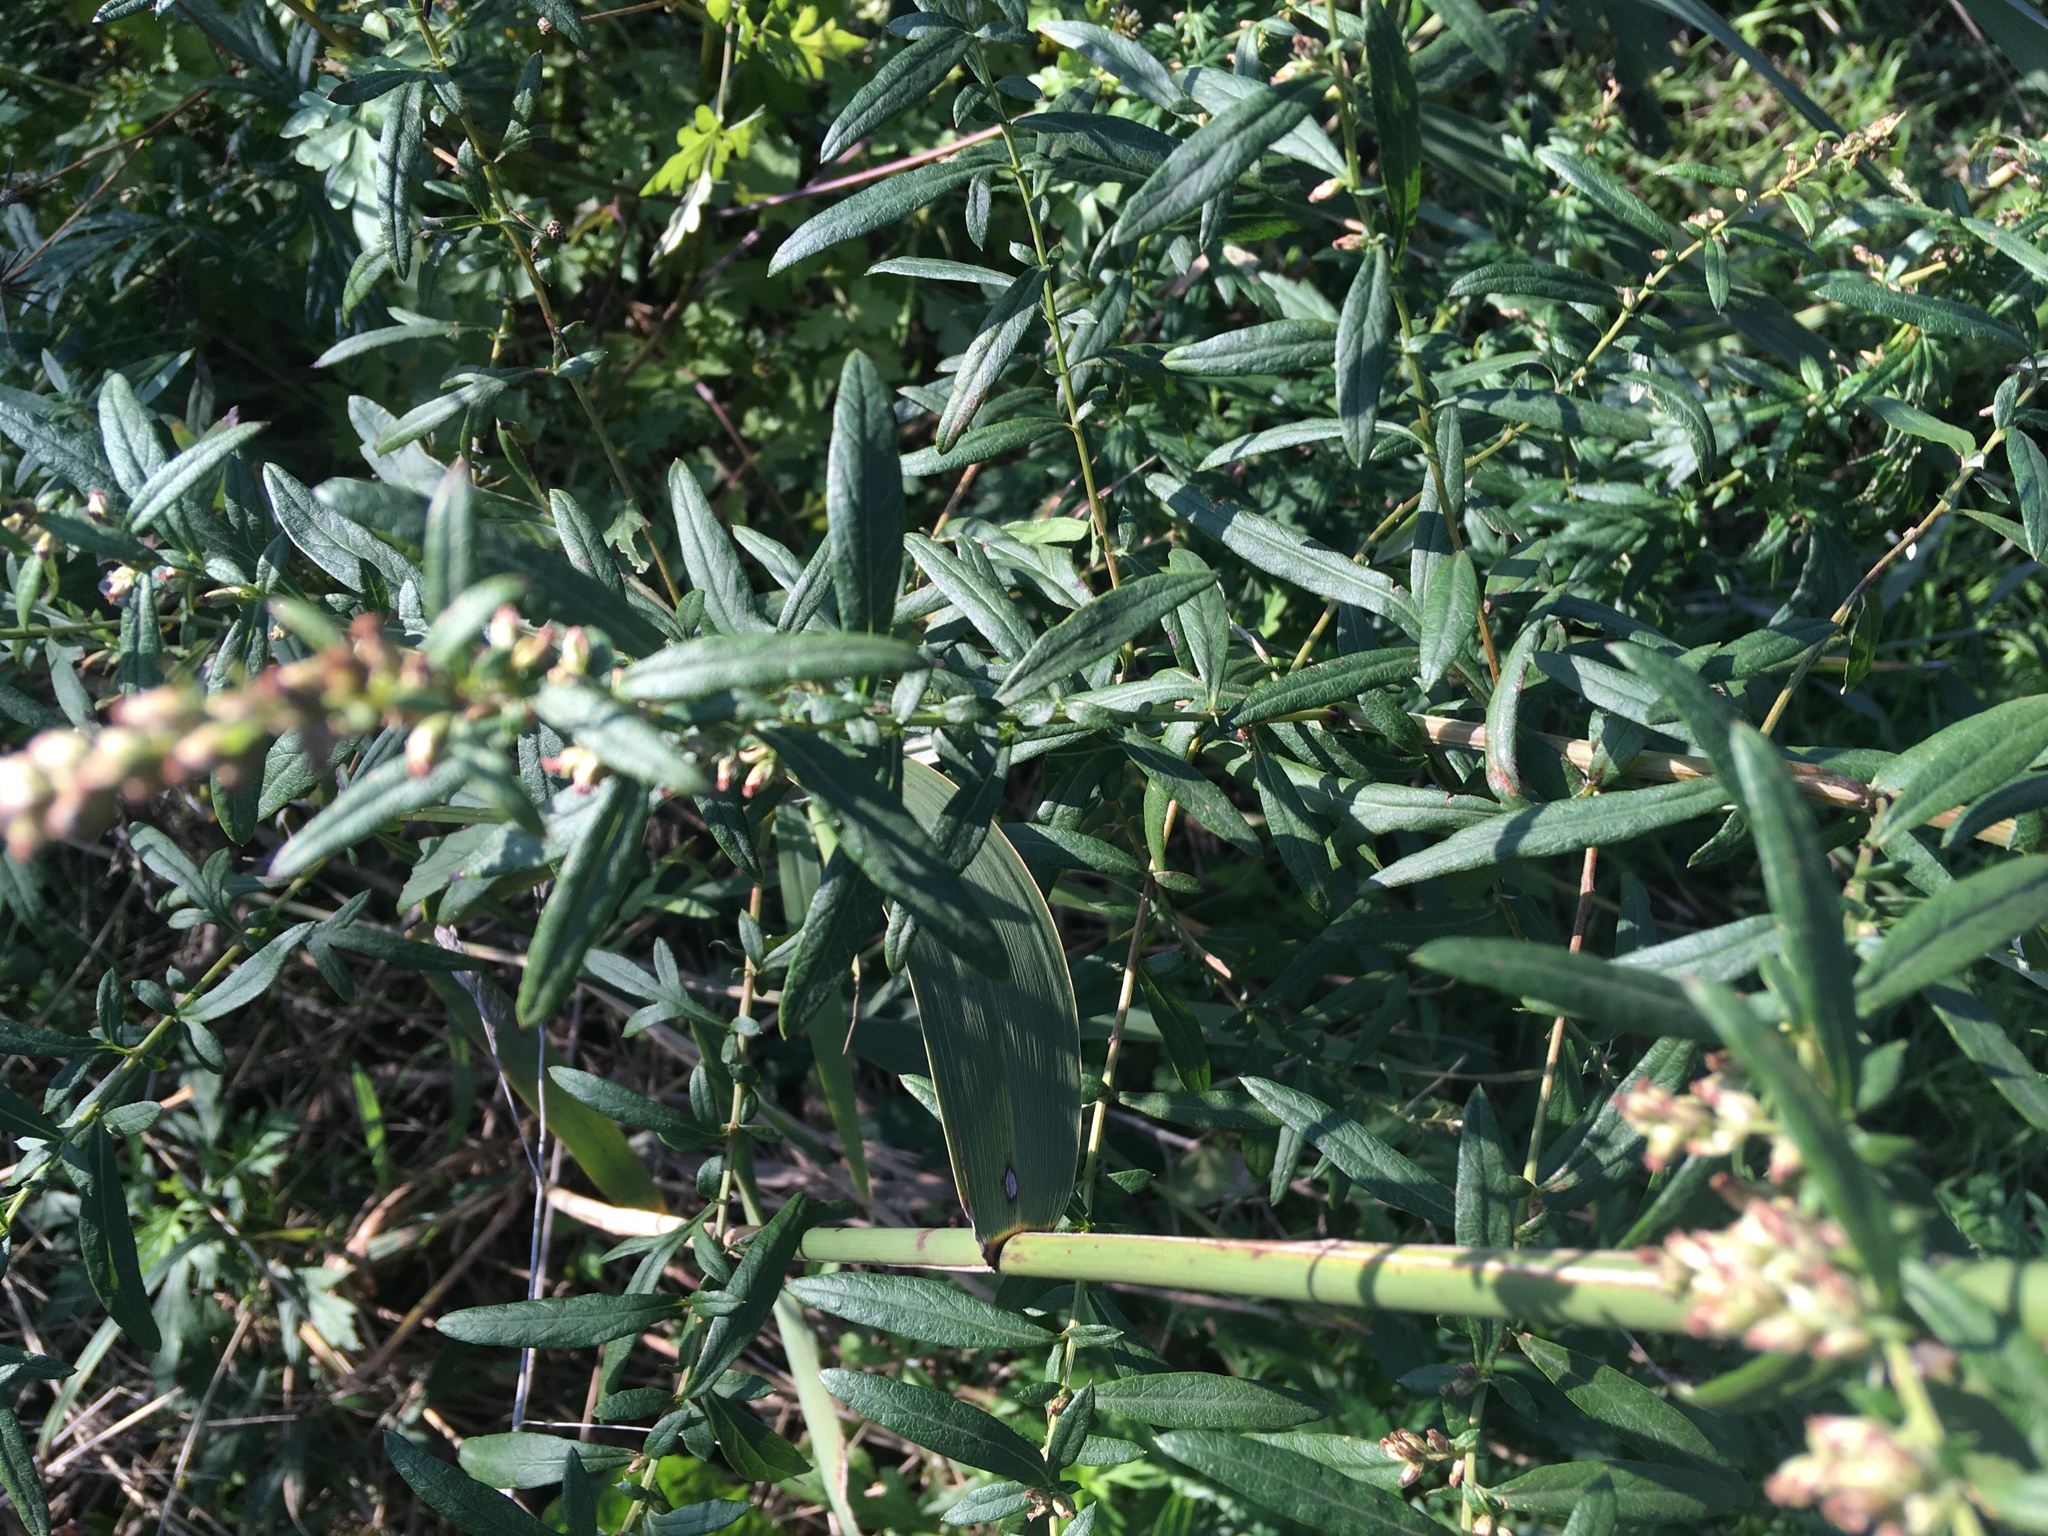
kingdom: Plantae
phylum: Tracheophyta
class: Magnoliopsida
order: Asterales
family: Asteraceae
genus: Artemisia
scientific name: Artemisia vulgaris
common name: Mugwort
